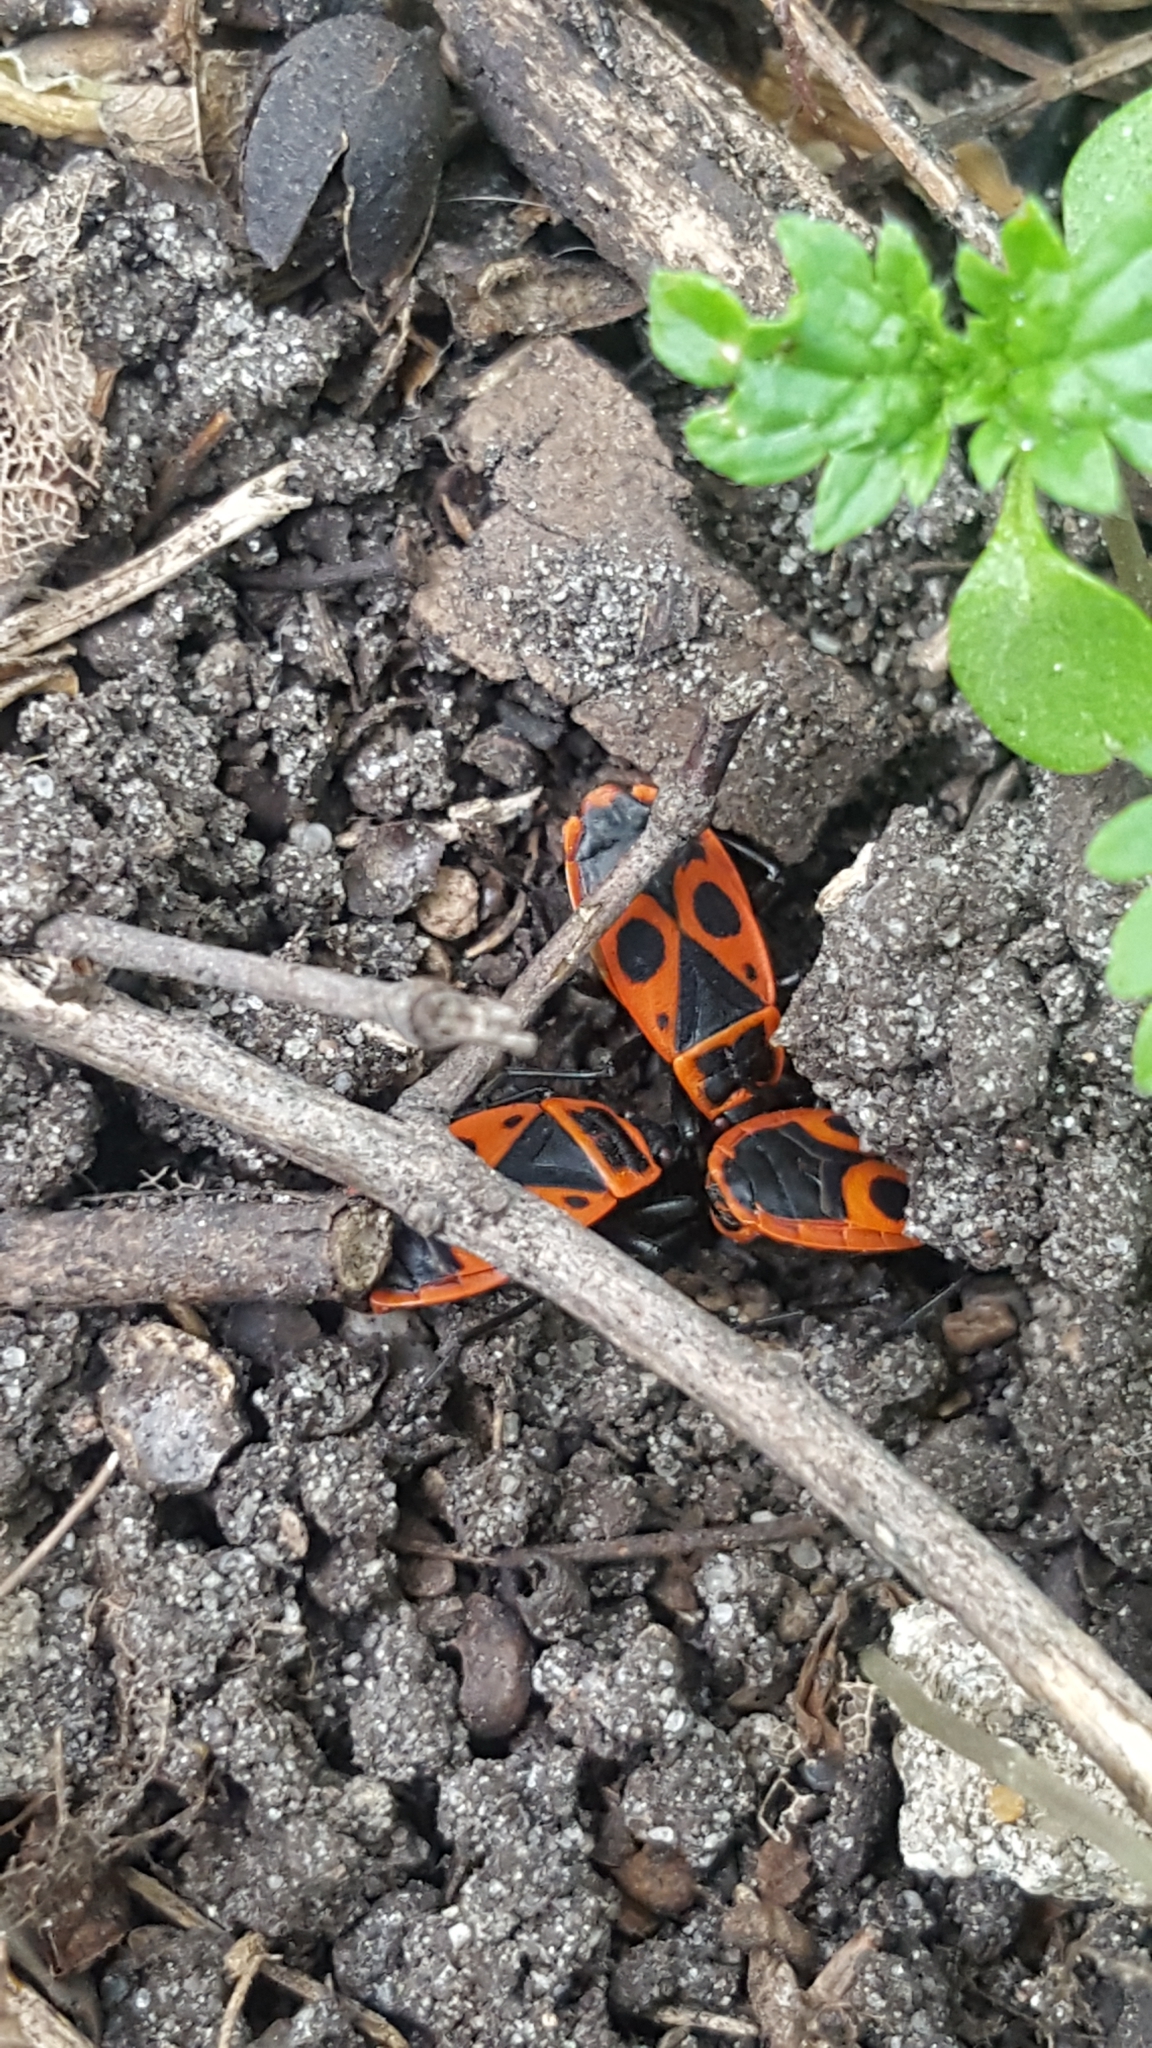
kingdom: Animalia
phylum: Arthropoda
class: Insecta
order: Hemiptera
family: Pyrrhocoridae
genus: Pyrrhocoris
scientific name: Pyrrhocoris apterus
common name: Firebug
